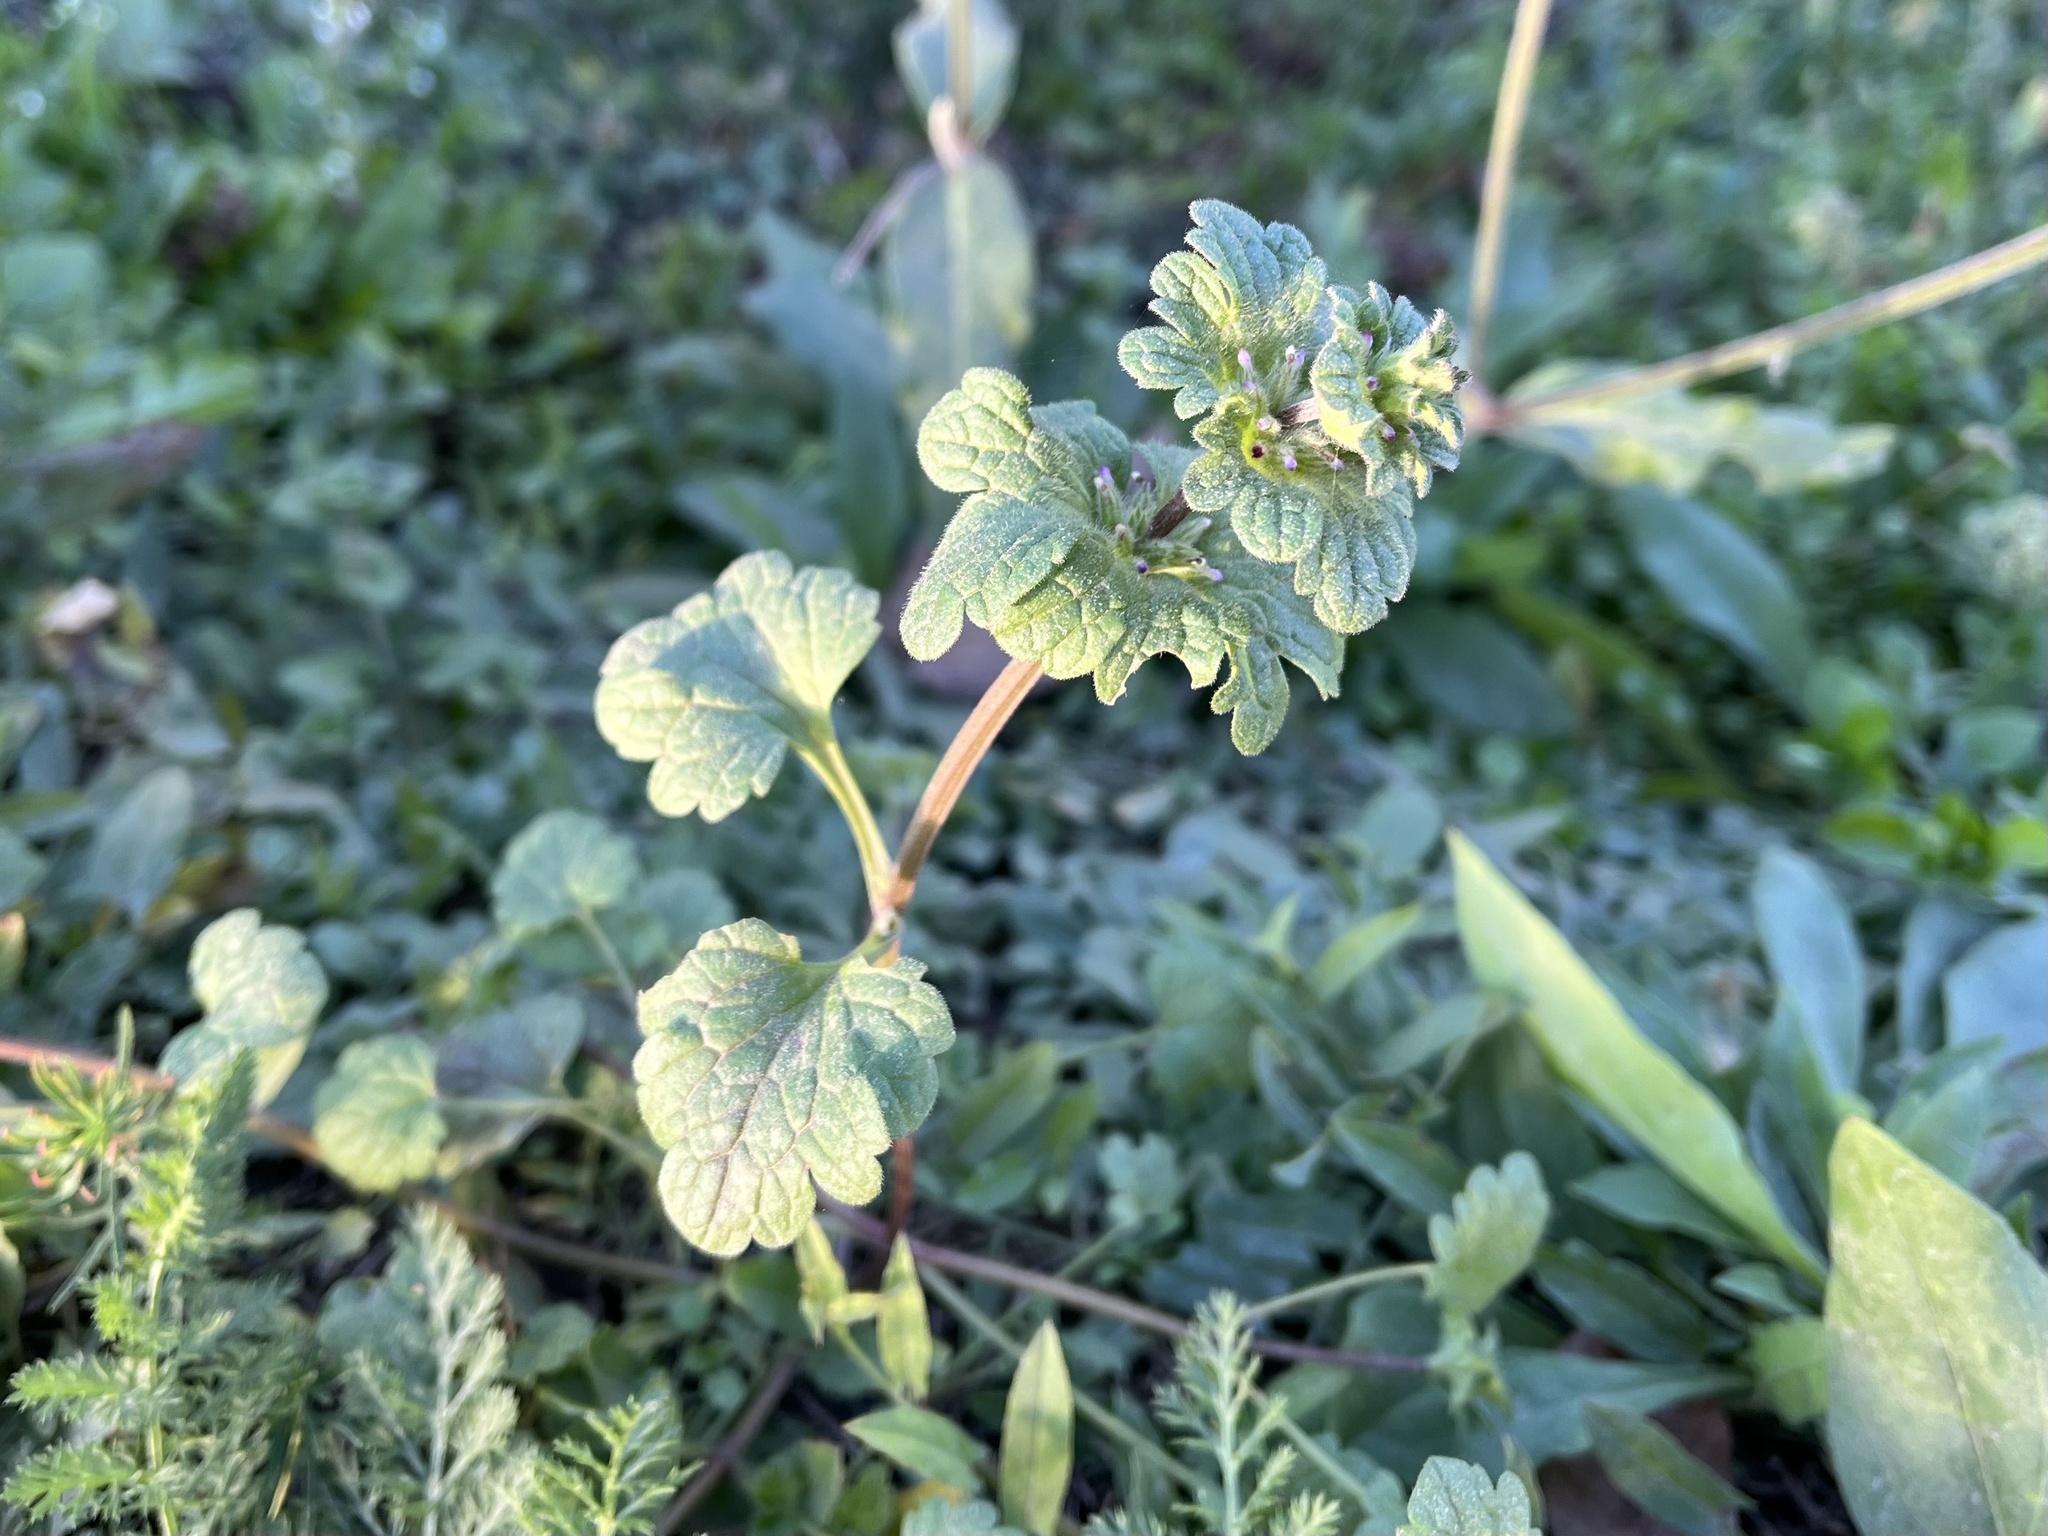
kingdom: Plantae
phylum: Tracheophyta
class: Magnoliopsida
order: Lamiales
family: Lamiaceae
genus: Lamium
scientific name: Lamium amplexicaule
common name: Henbit dead-nettle
